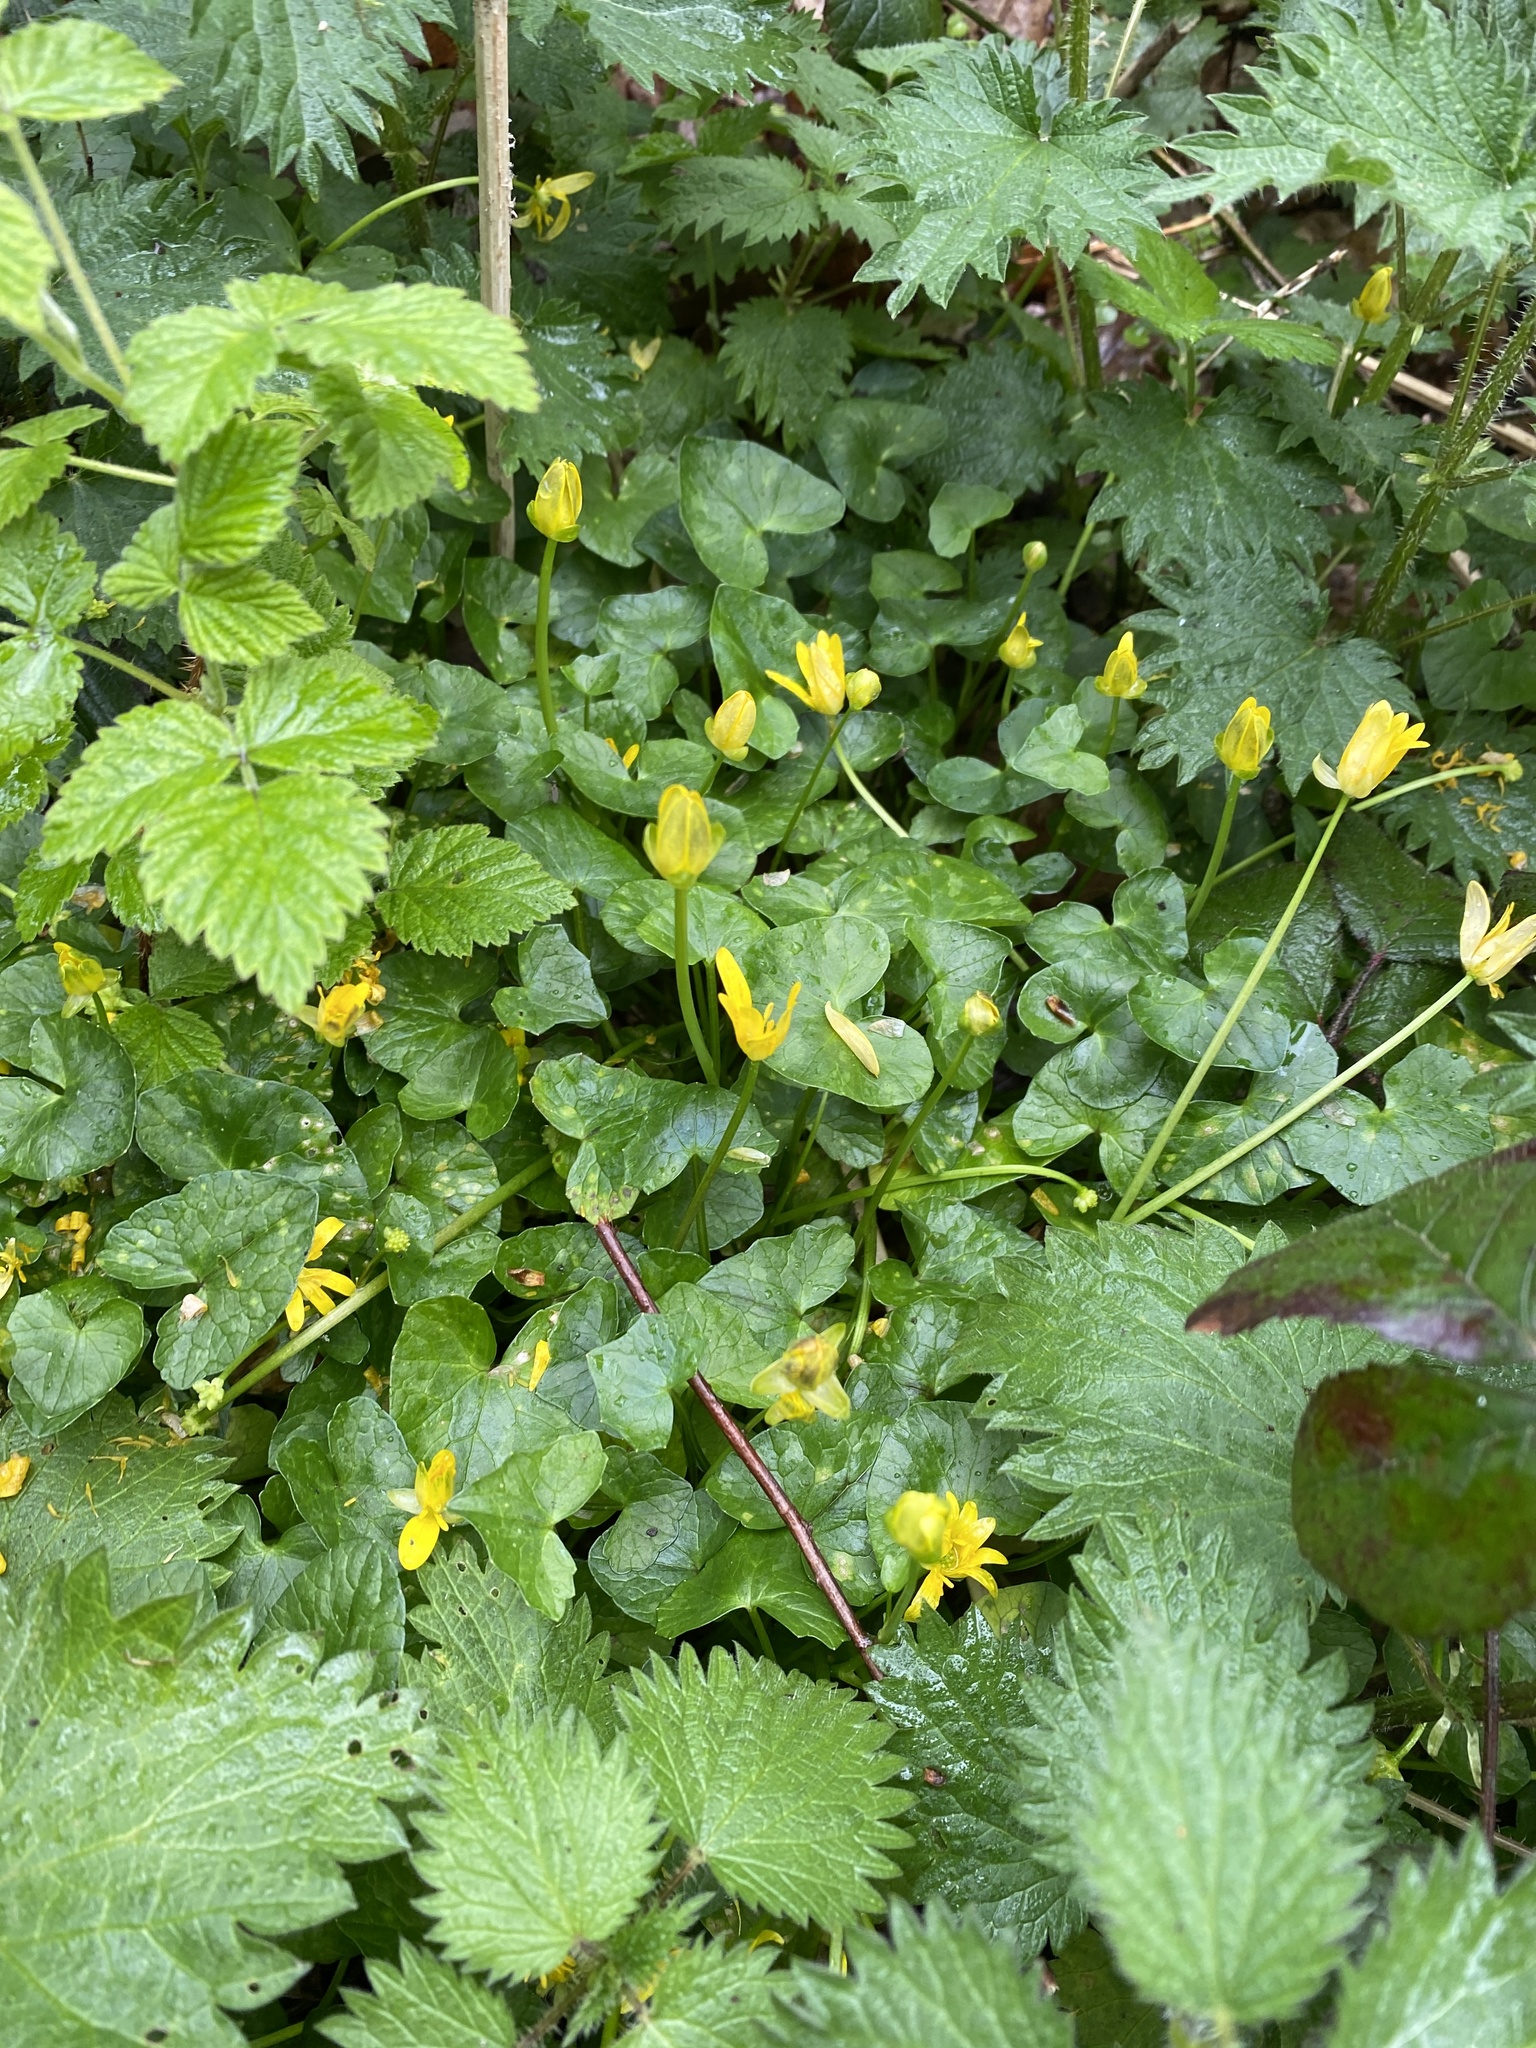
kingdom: Plantae
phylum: Tracheophyta
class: Magnoliopsida
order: Ranunculales
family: Ranunculaceae
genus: Ficaria
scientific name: Ficaria verna
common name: Lesser celandine
